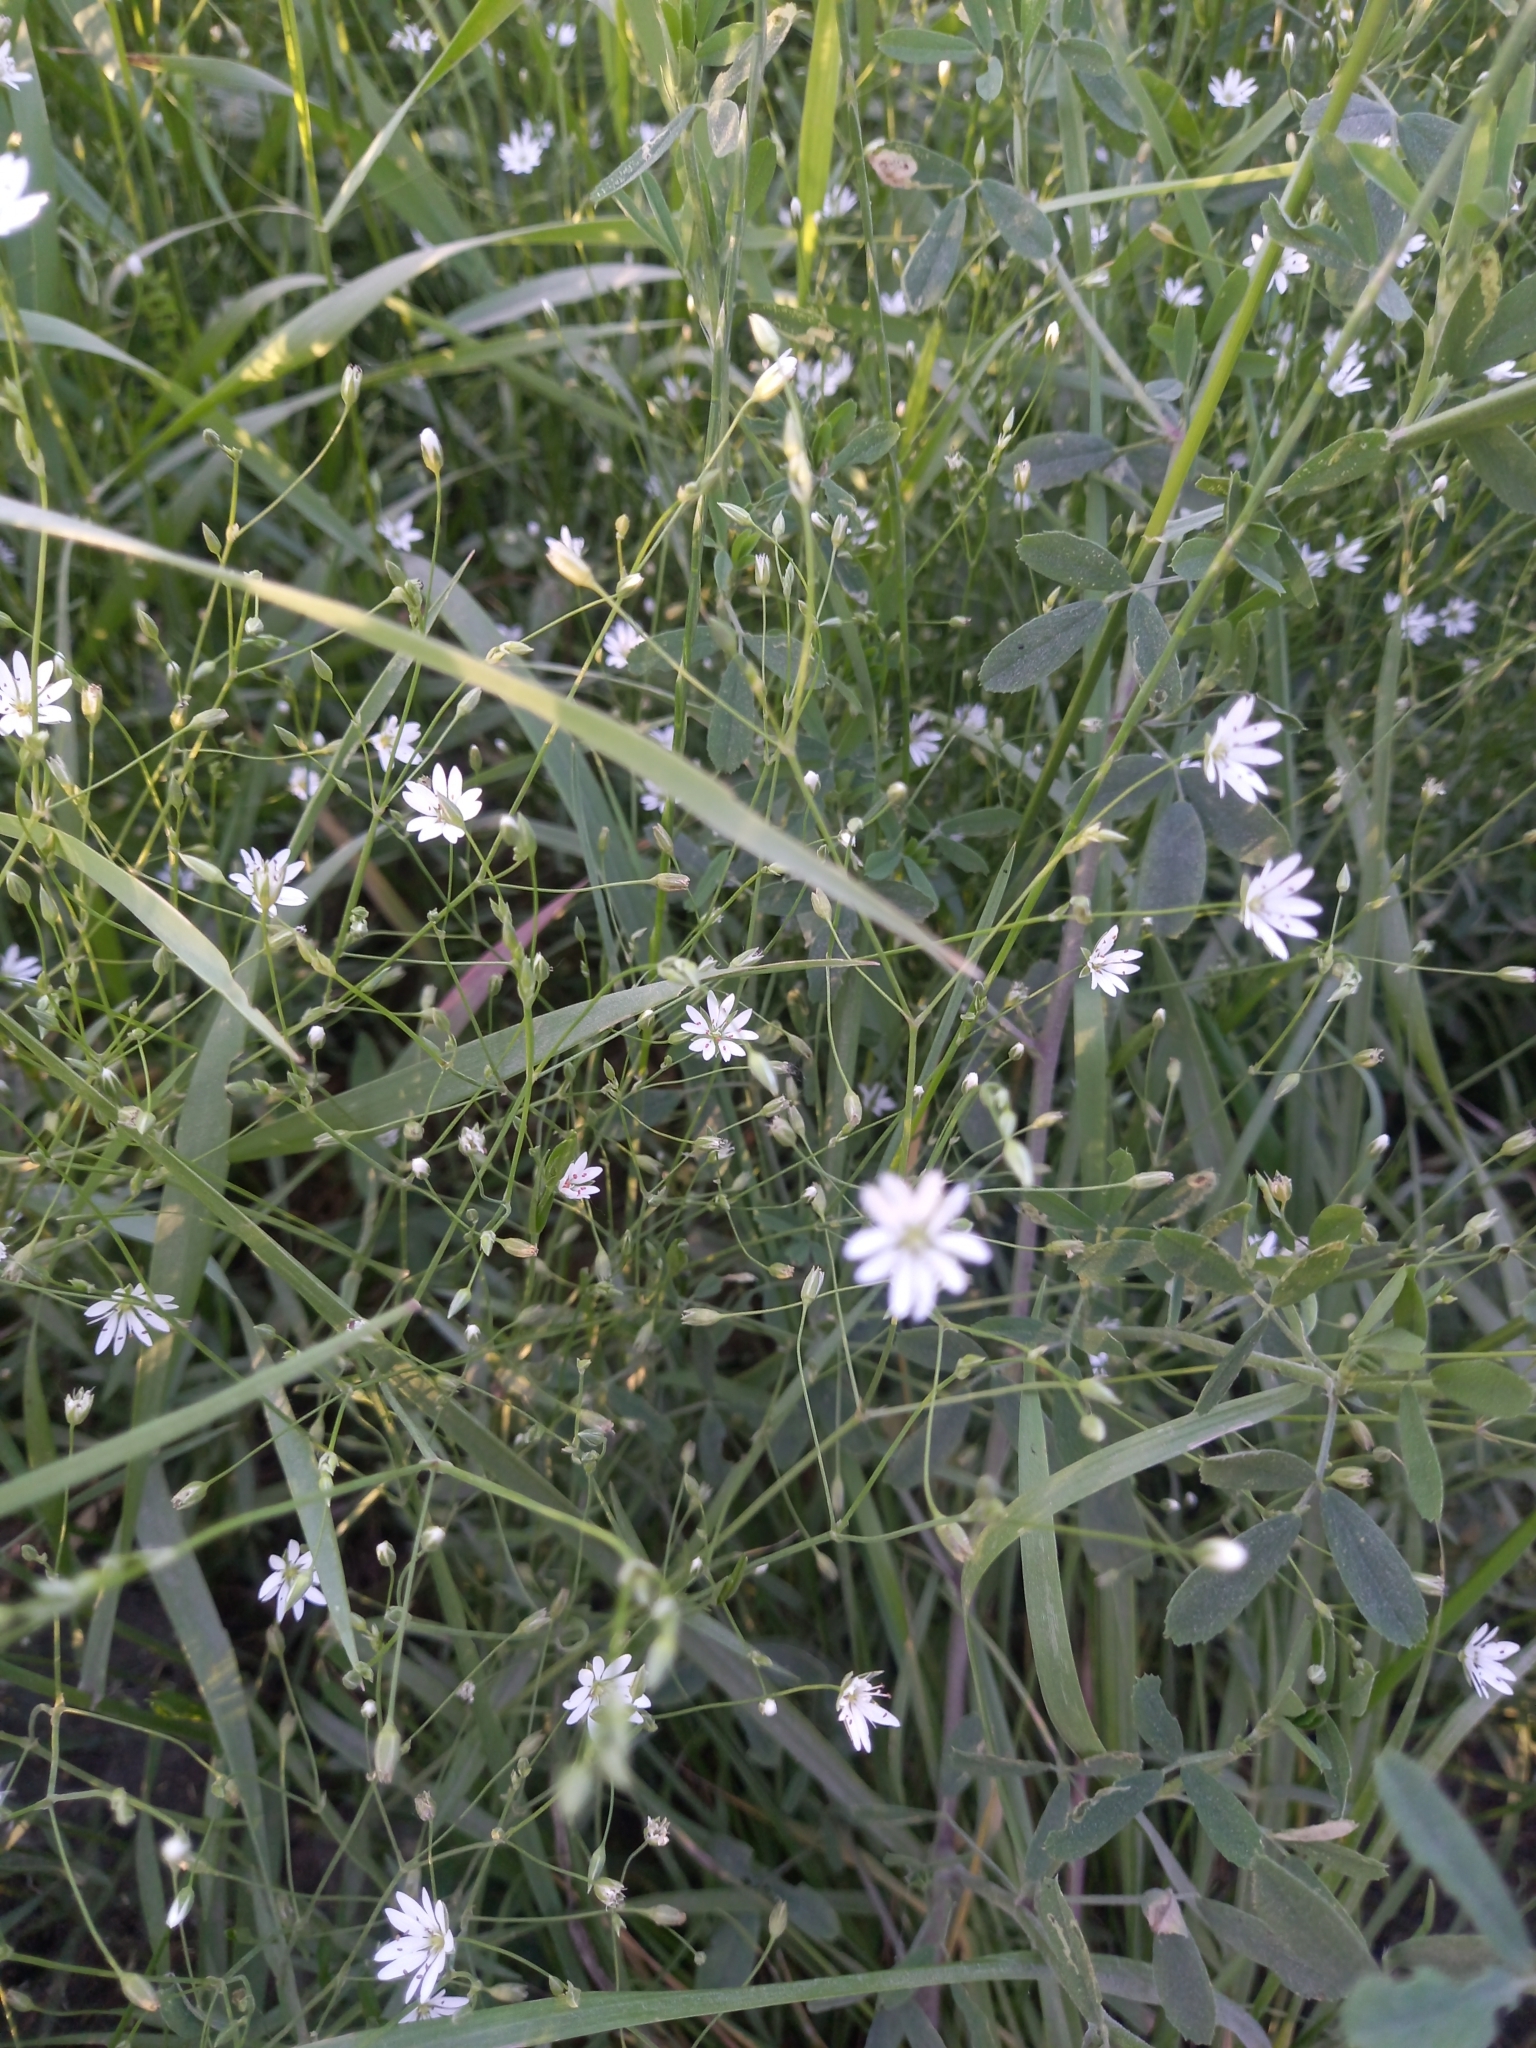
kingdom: Plantae
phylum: Tracheophyta
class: Magnoliopsida
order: Caryophyllales
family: Caryophyllaceae
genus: Stellaria
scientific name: Stellaria graminea
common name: Grass-like starwort
